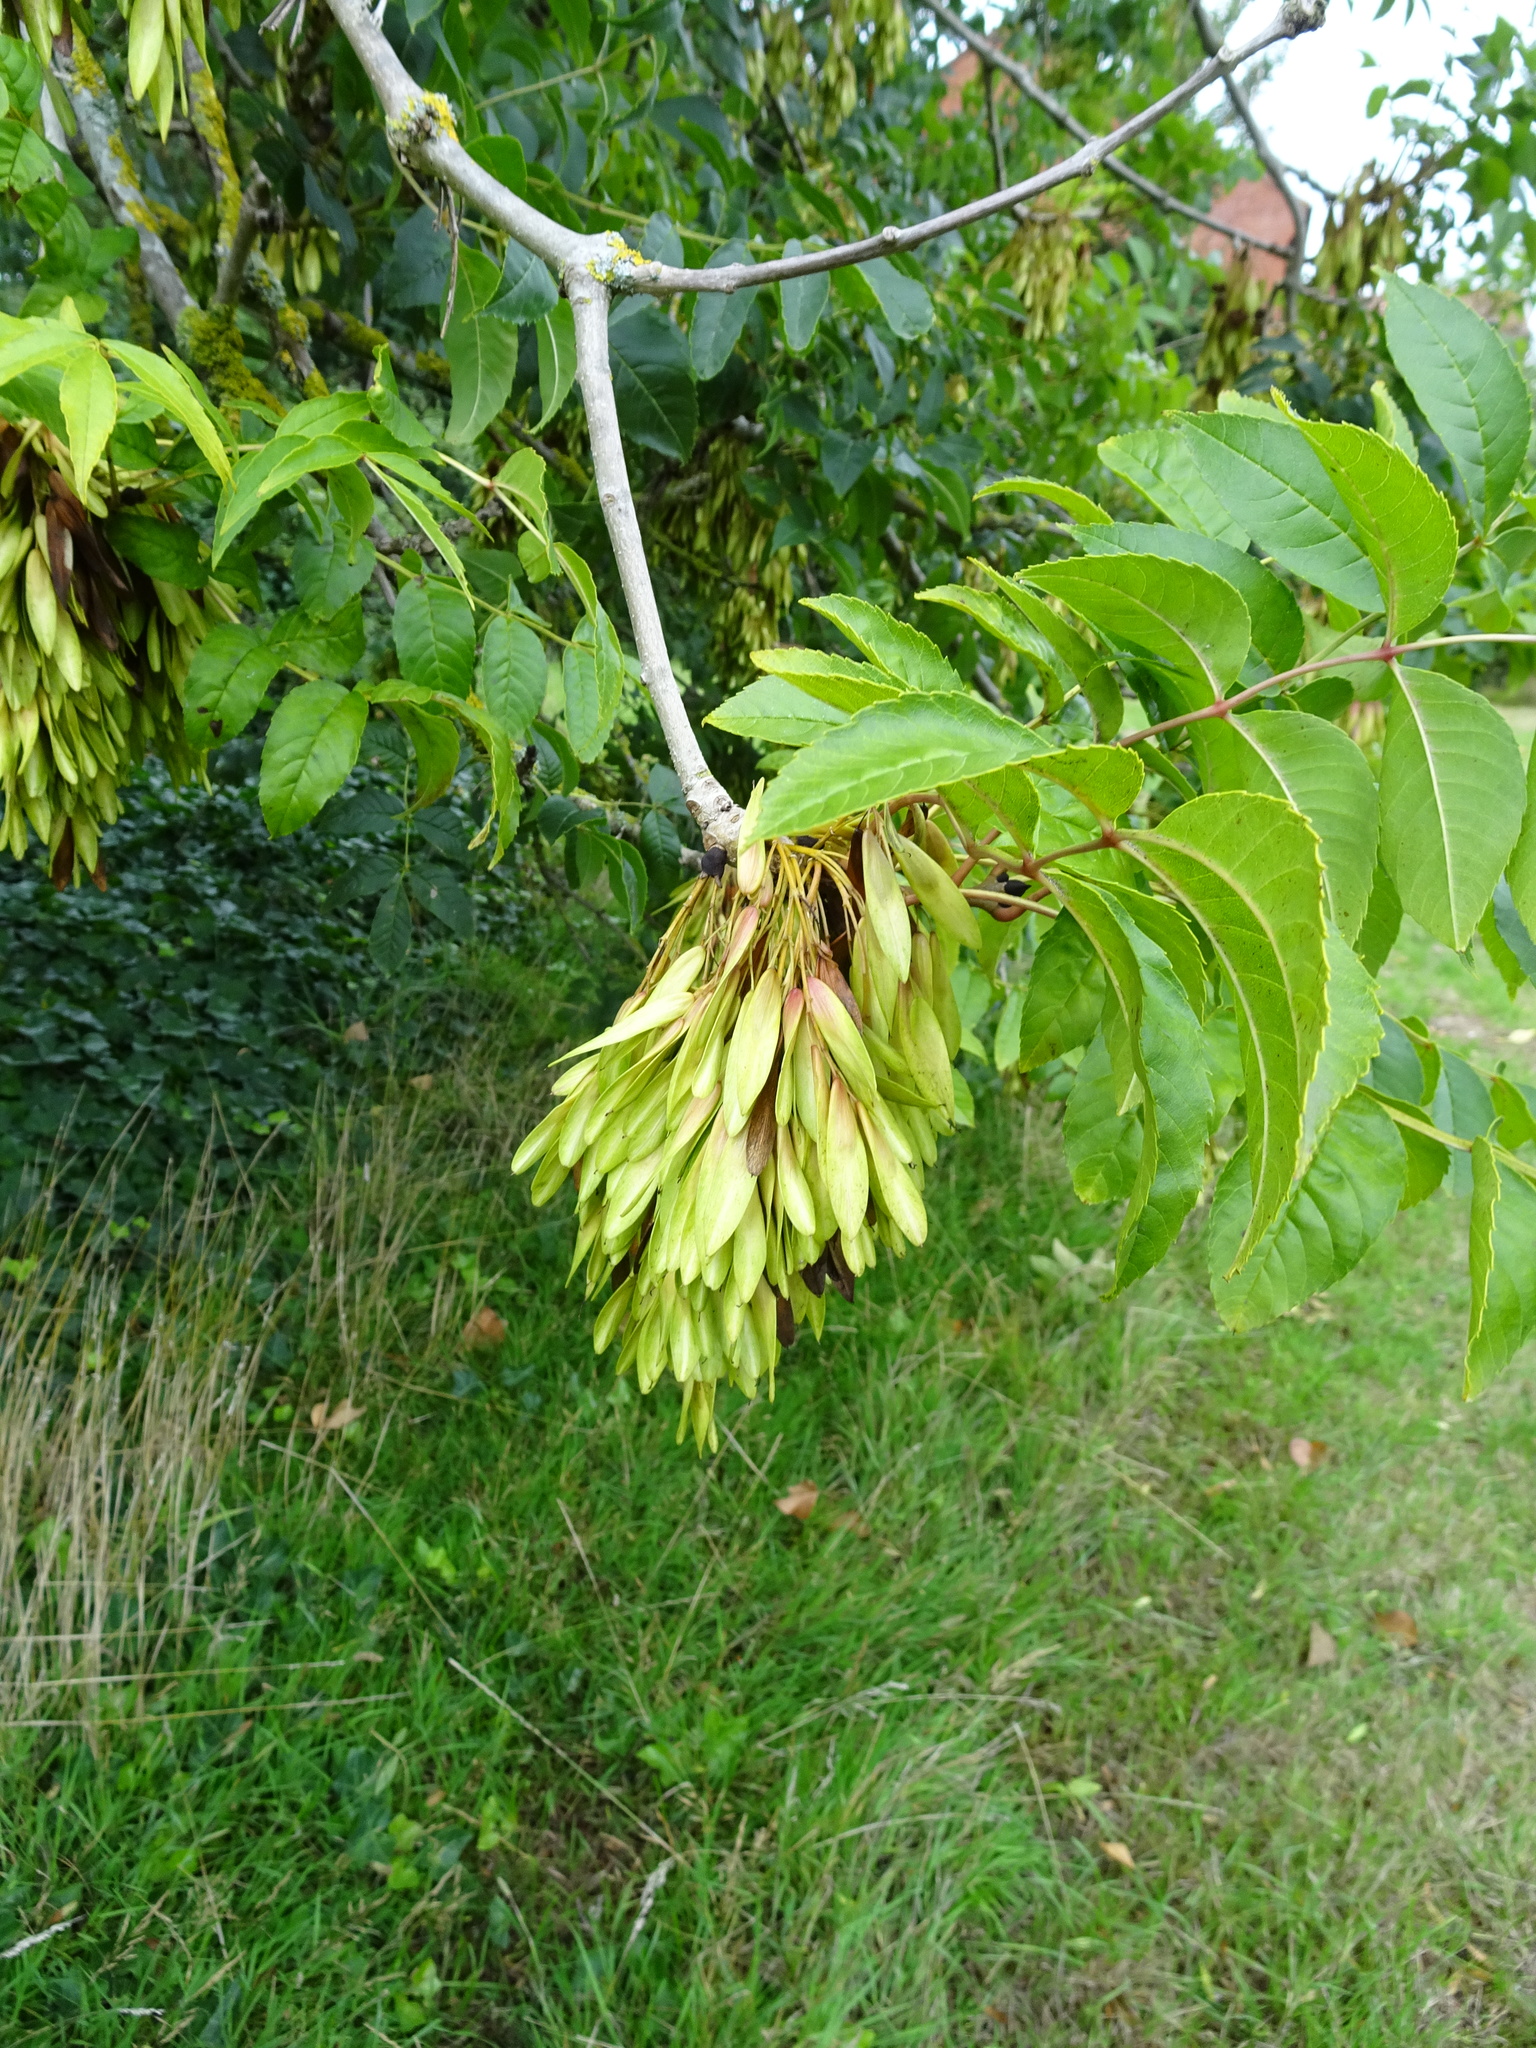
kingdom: Plantae
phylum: Tracheophyta
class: Magnoliopsida
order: Lamiales
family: Oleaceae
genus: Fraxinus
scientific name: Fraxinus excelsior
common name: European ash
